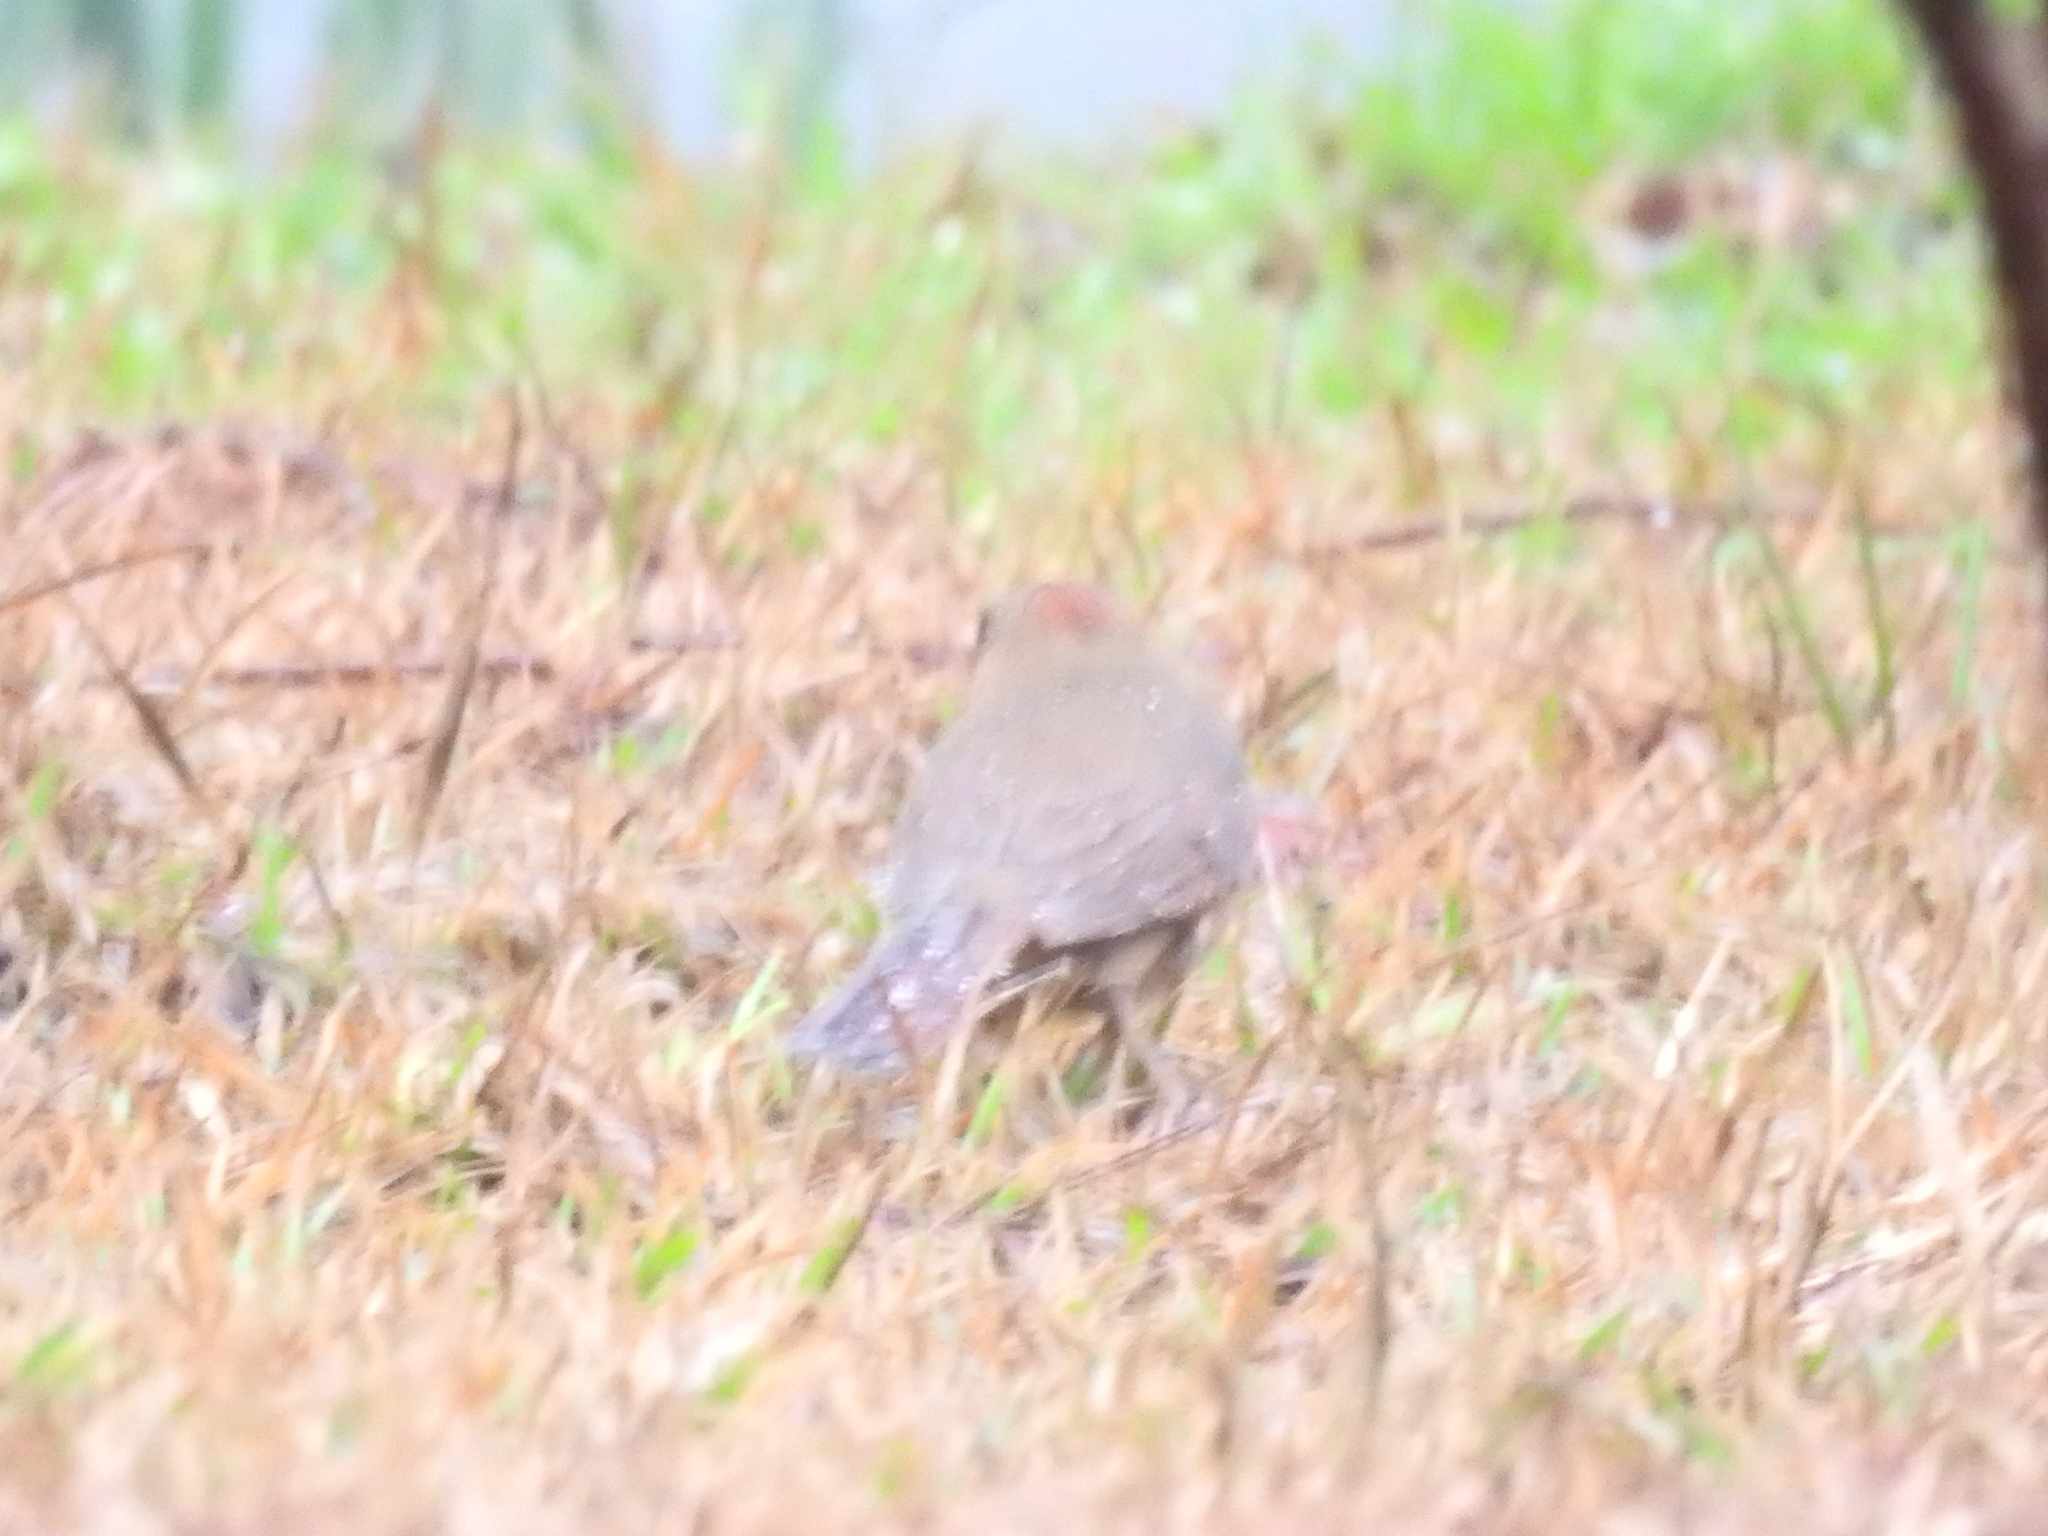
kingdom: Animalia
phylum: Chordata
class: Aves
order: Passeriformes
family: Cardinalidae
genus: Cardinalis
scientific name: Cardinalis cardinalis
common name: Northern cardinal
